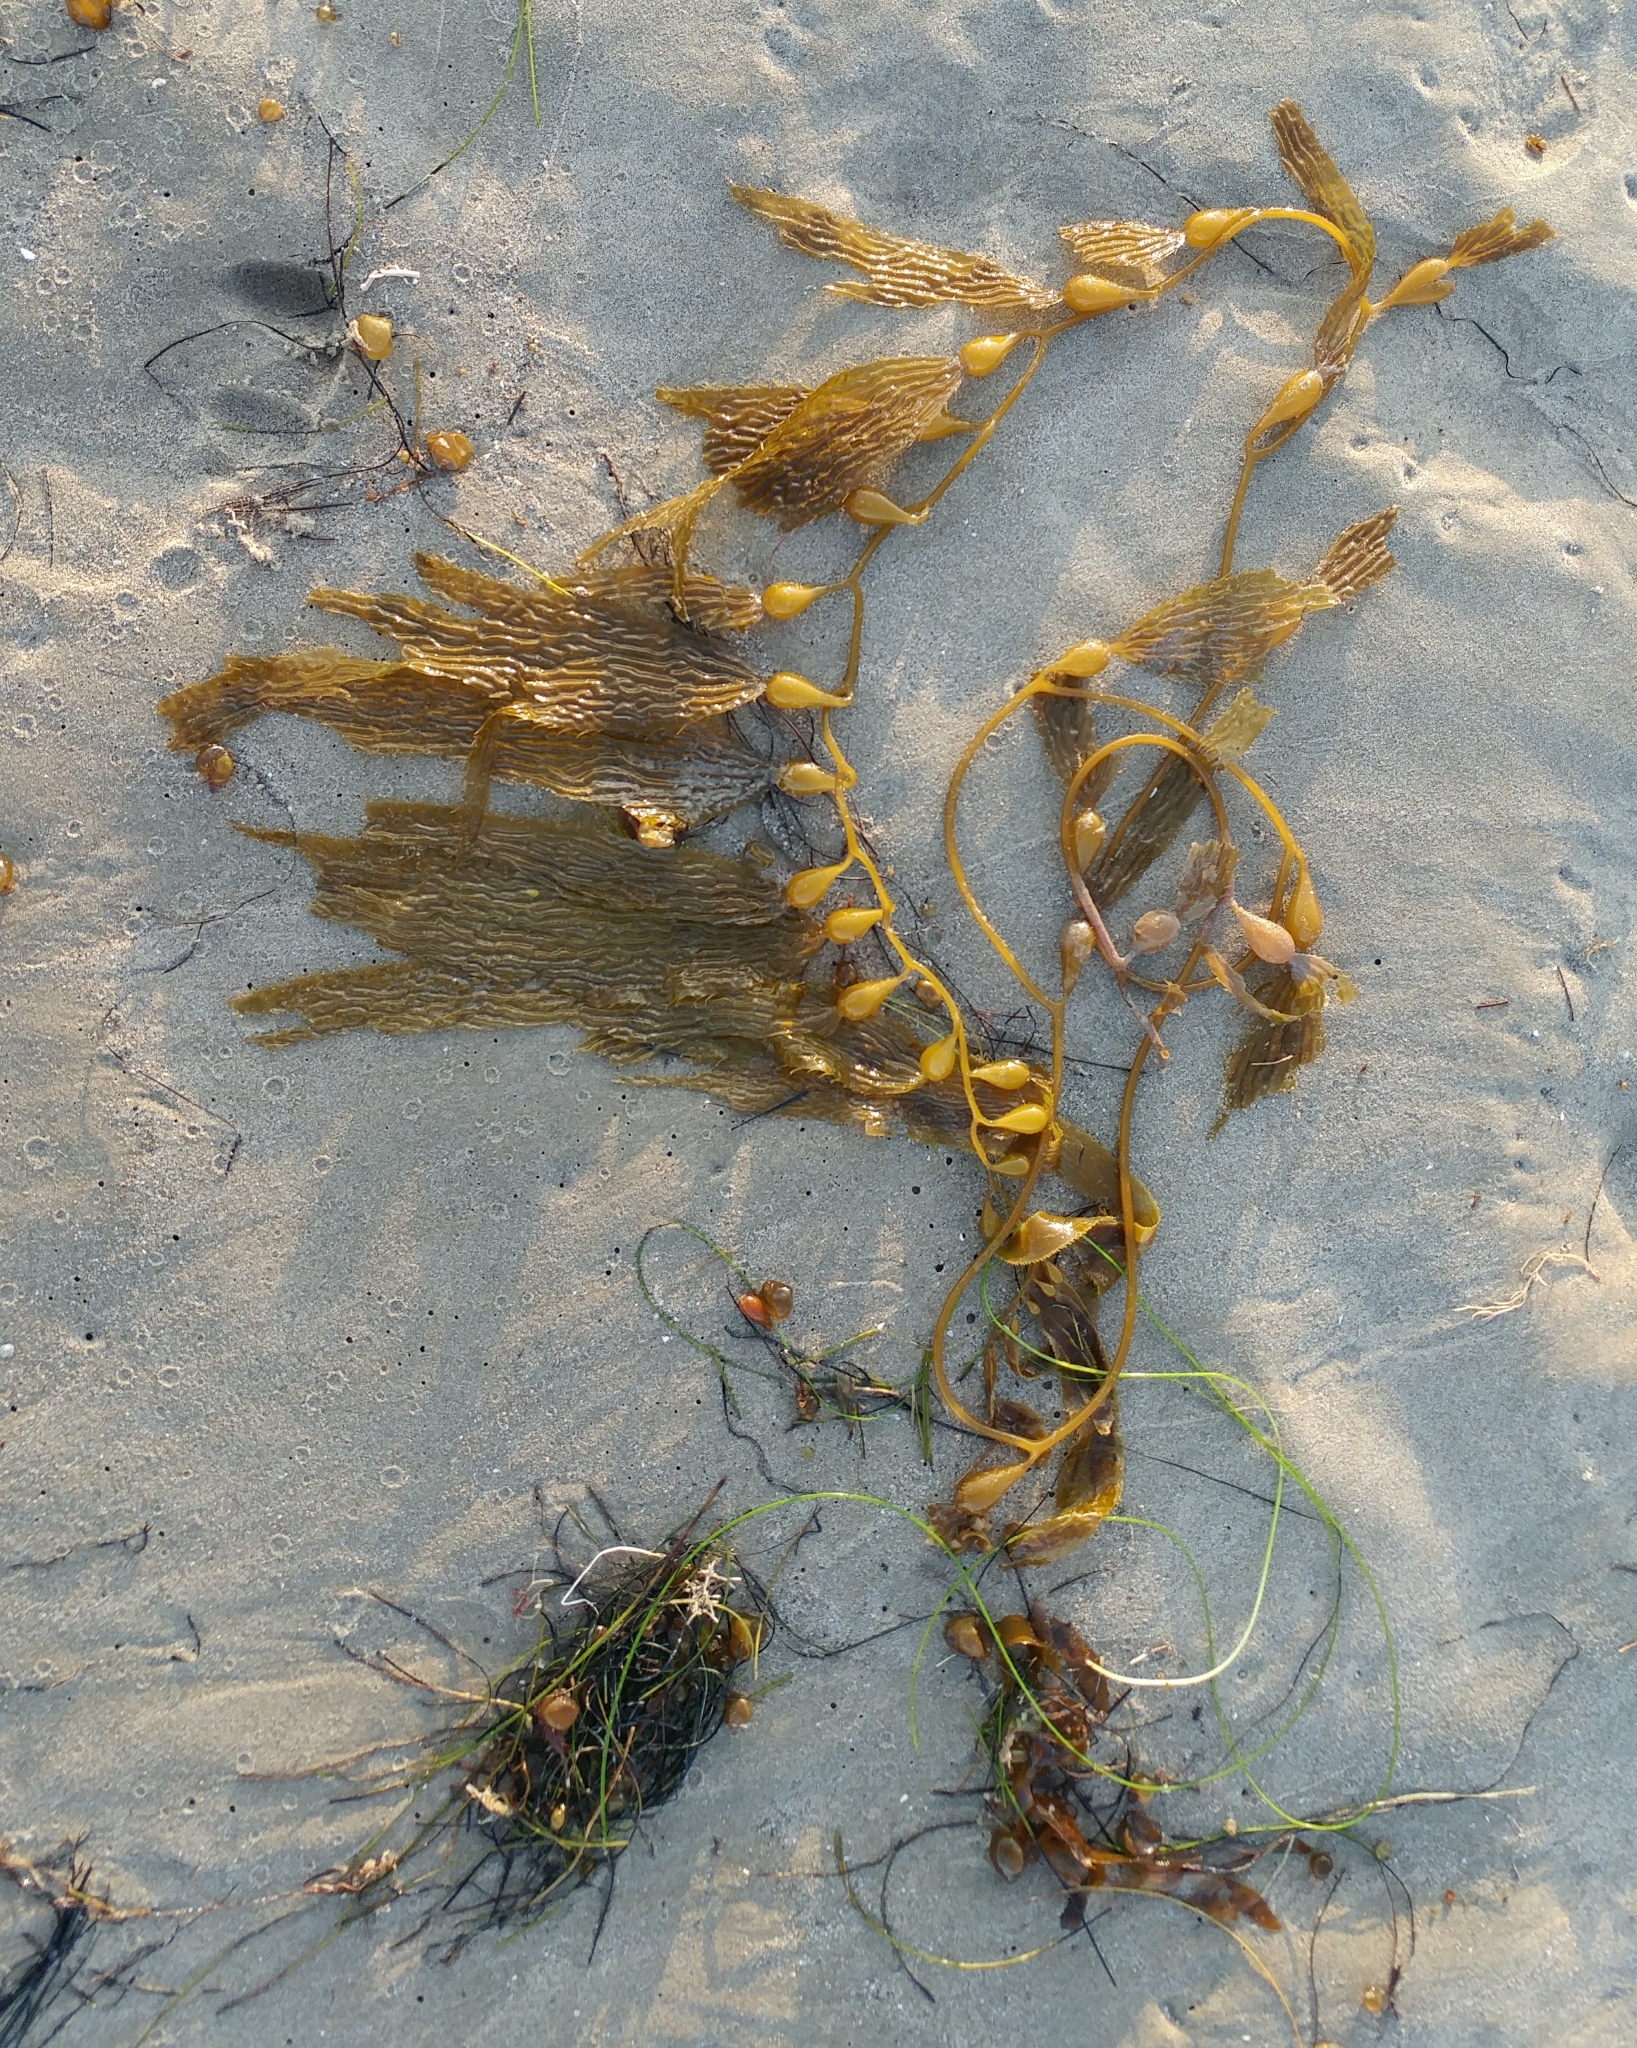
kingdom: Chromista
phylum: Ochrophyta
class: Phaeophyceae
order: Laminariales
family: Laminariaceae
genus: Macrocystis
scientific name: Macrocystis pyrifera
